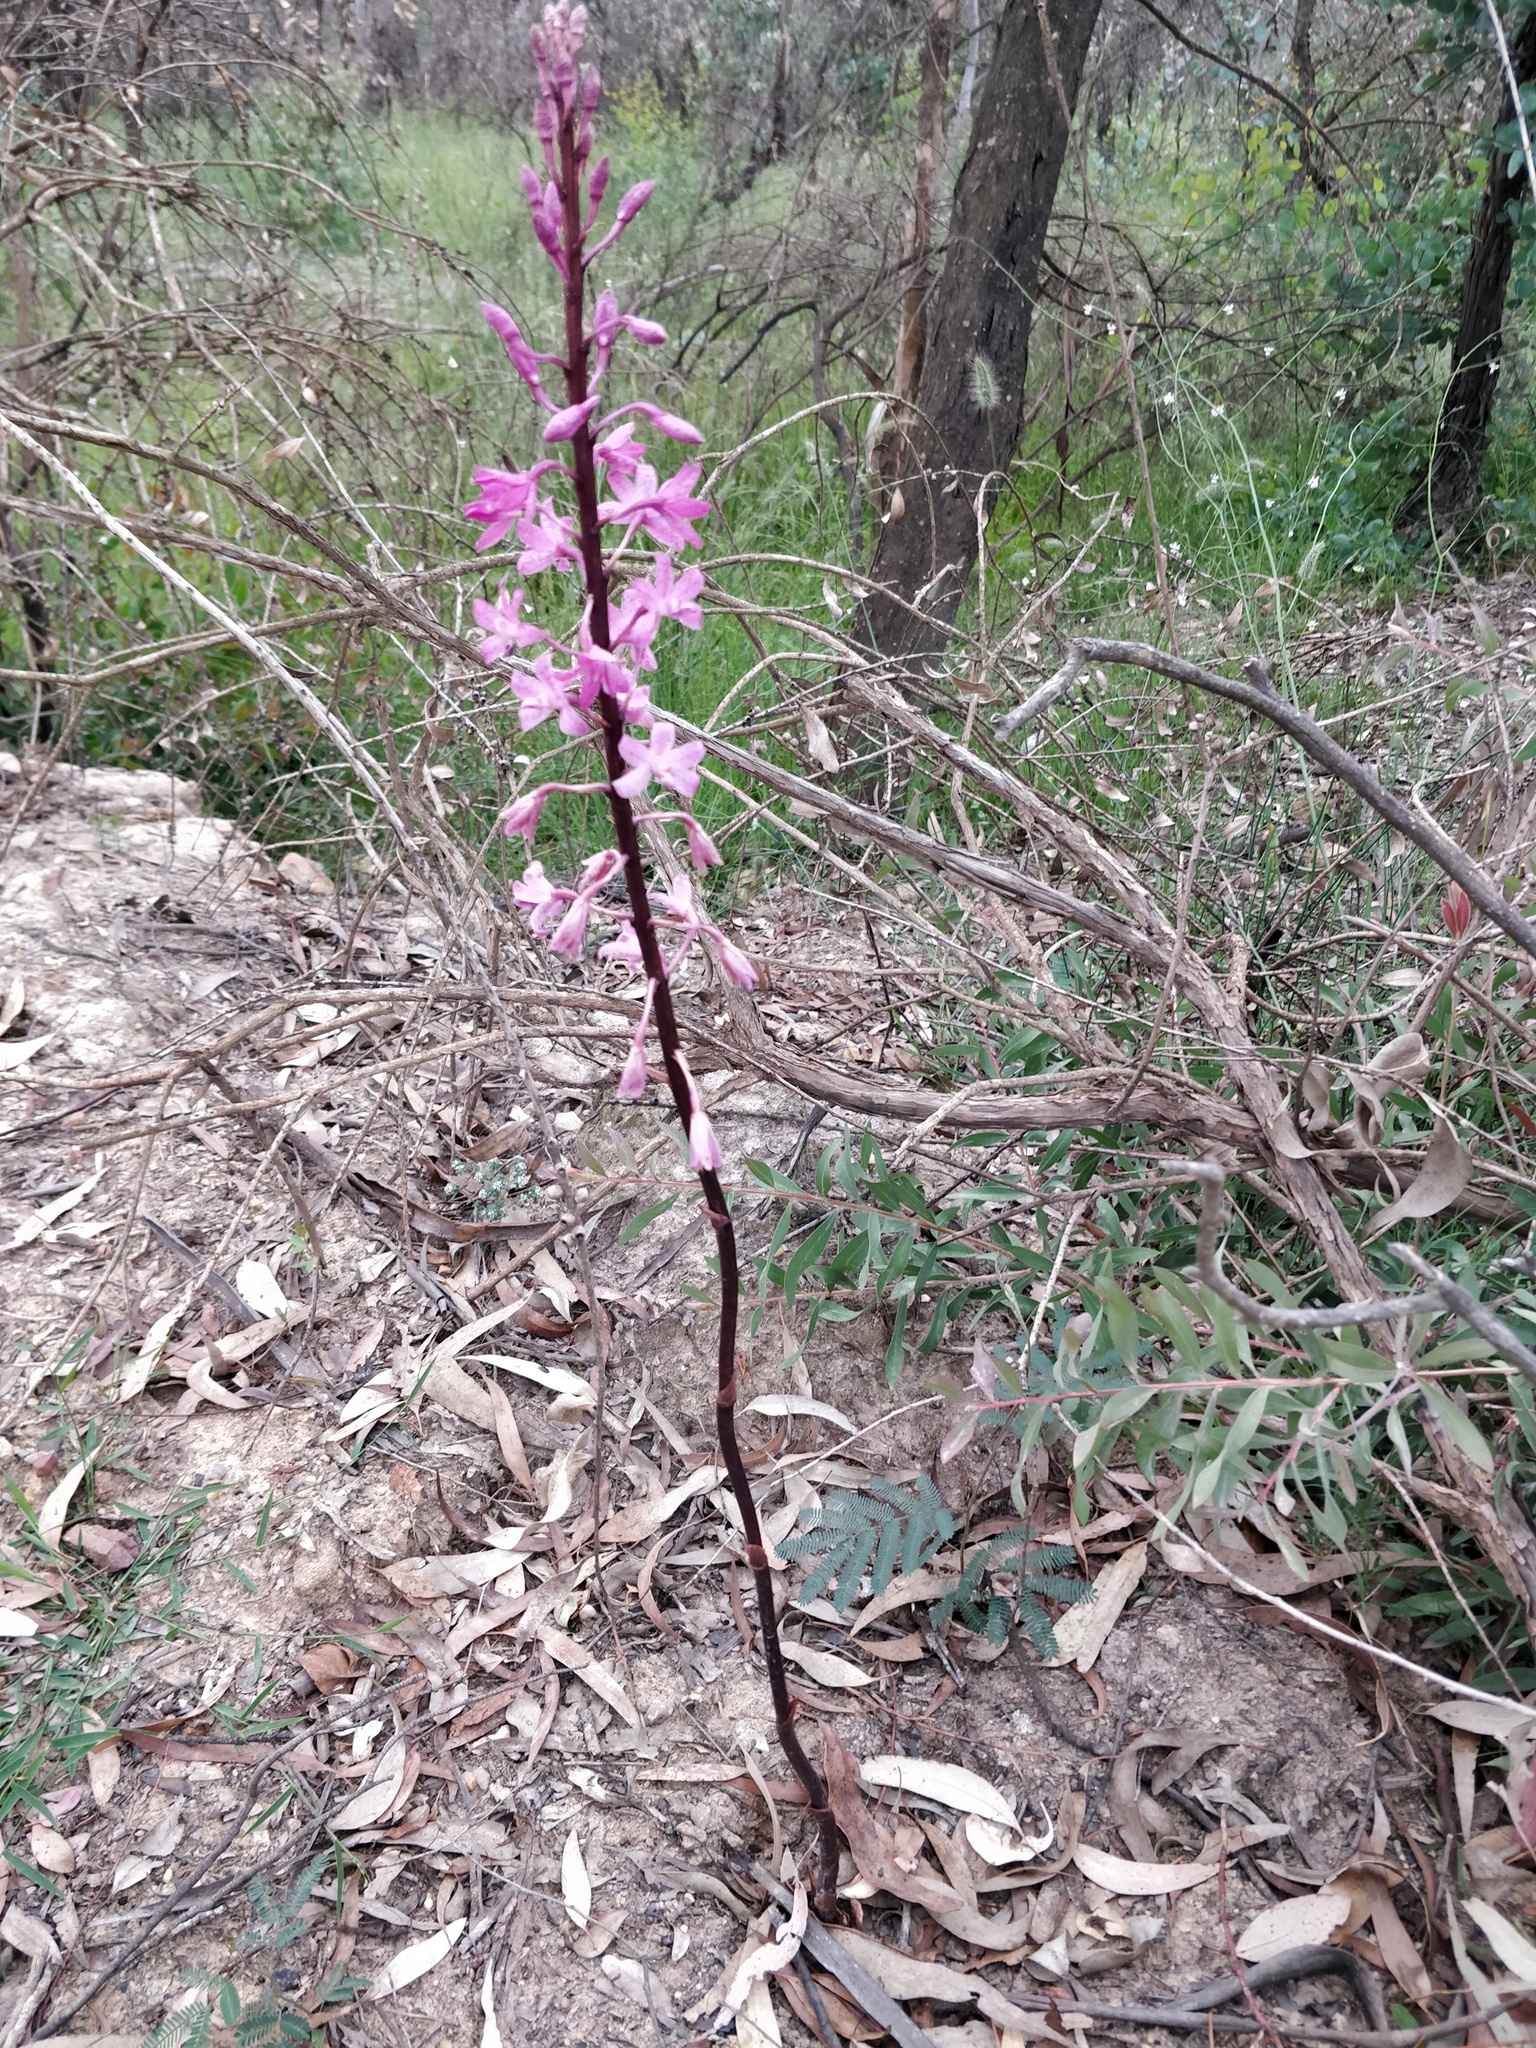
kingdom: Plantae
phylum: Tracheophyta
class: Liliopsida
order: Asparagales
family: Orchidaceae
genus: Dipodium
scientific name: Dipodium roseum
